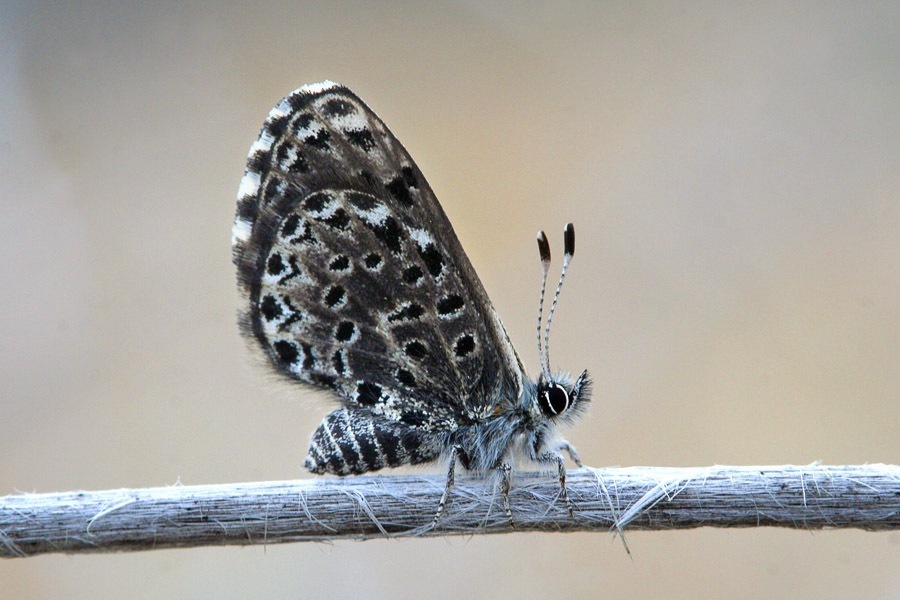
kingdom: Animalia
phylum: Arthropoda
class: Insecta
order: Lepidoptera
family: Lycaenidae
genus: Praephilotes
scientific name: Praephilotes anthracias
